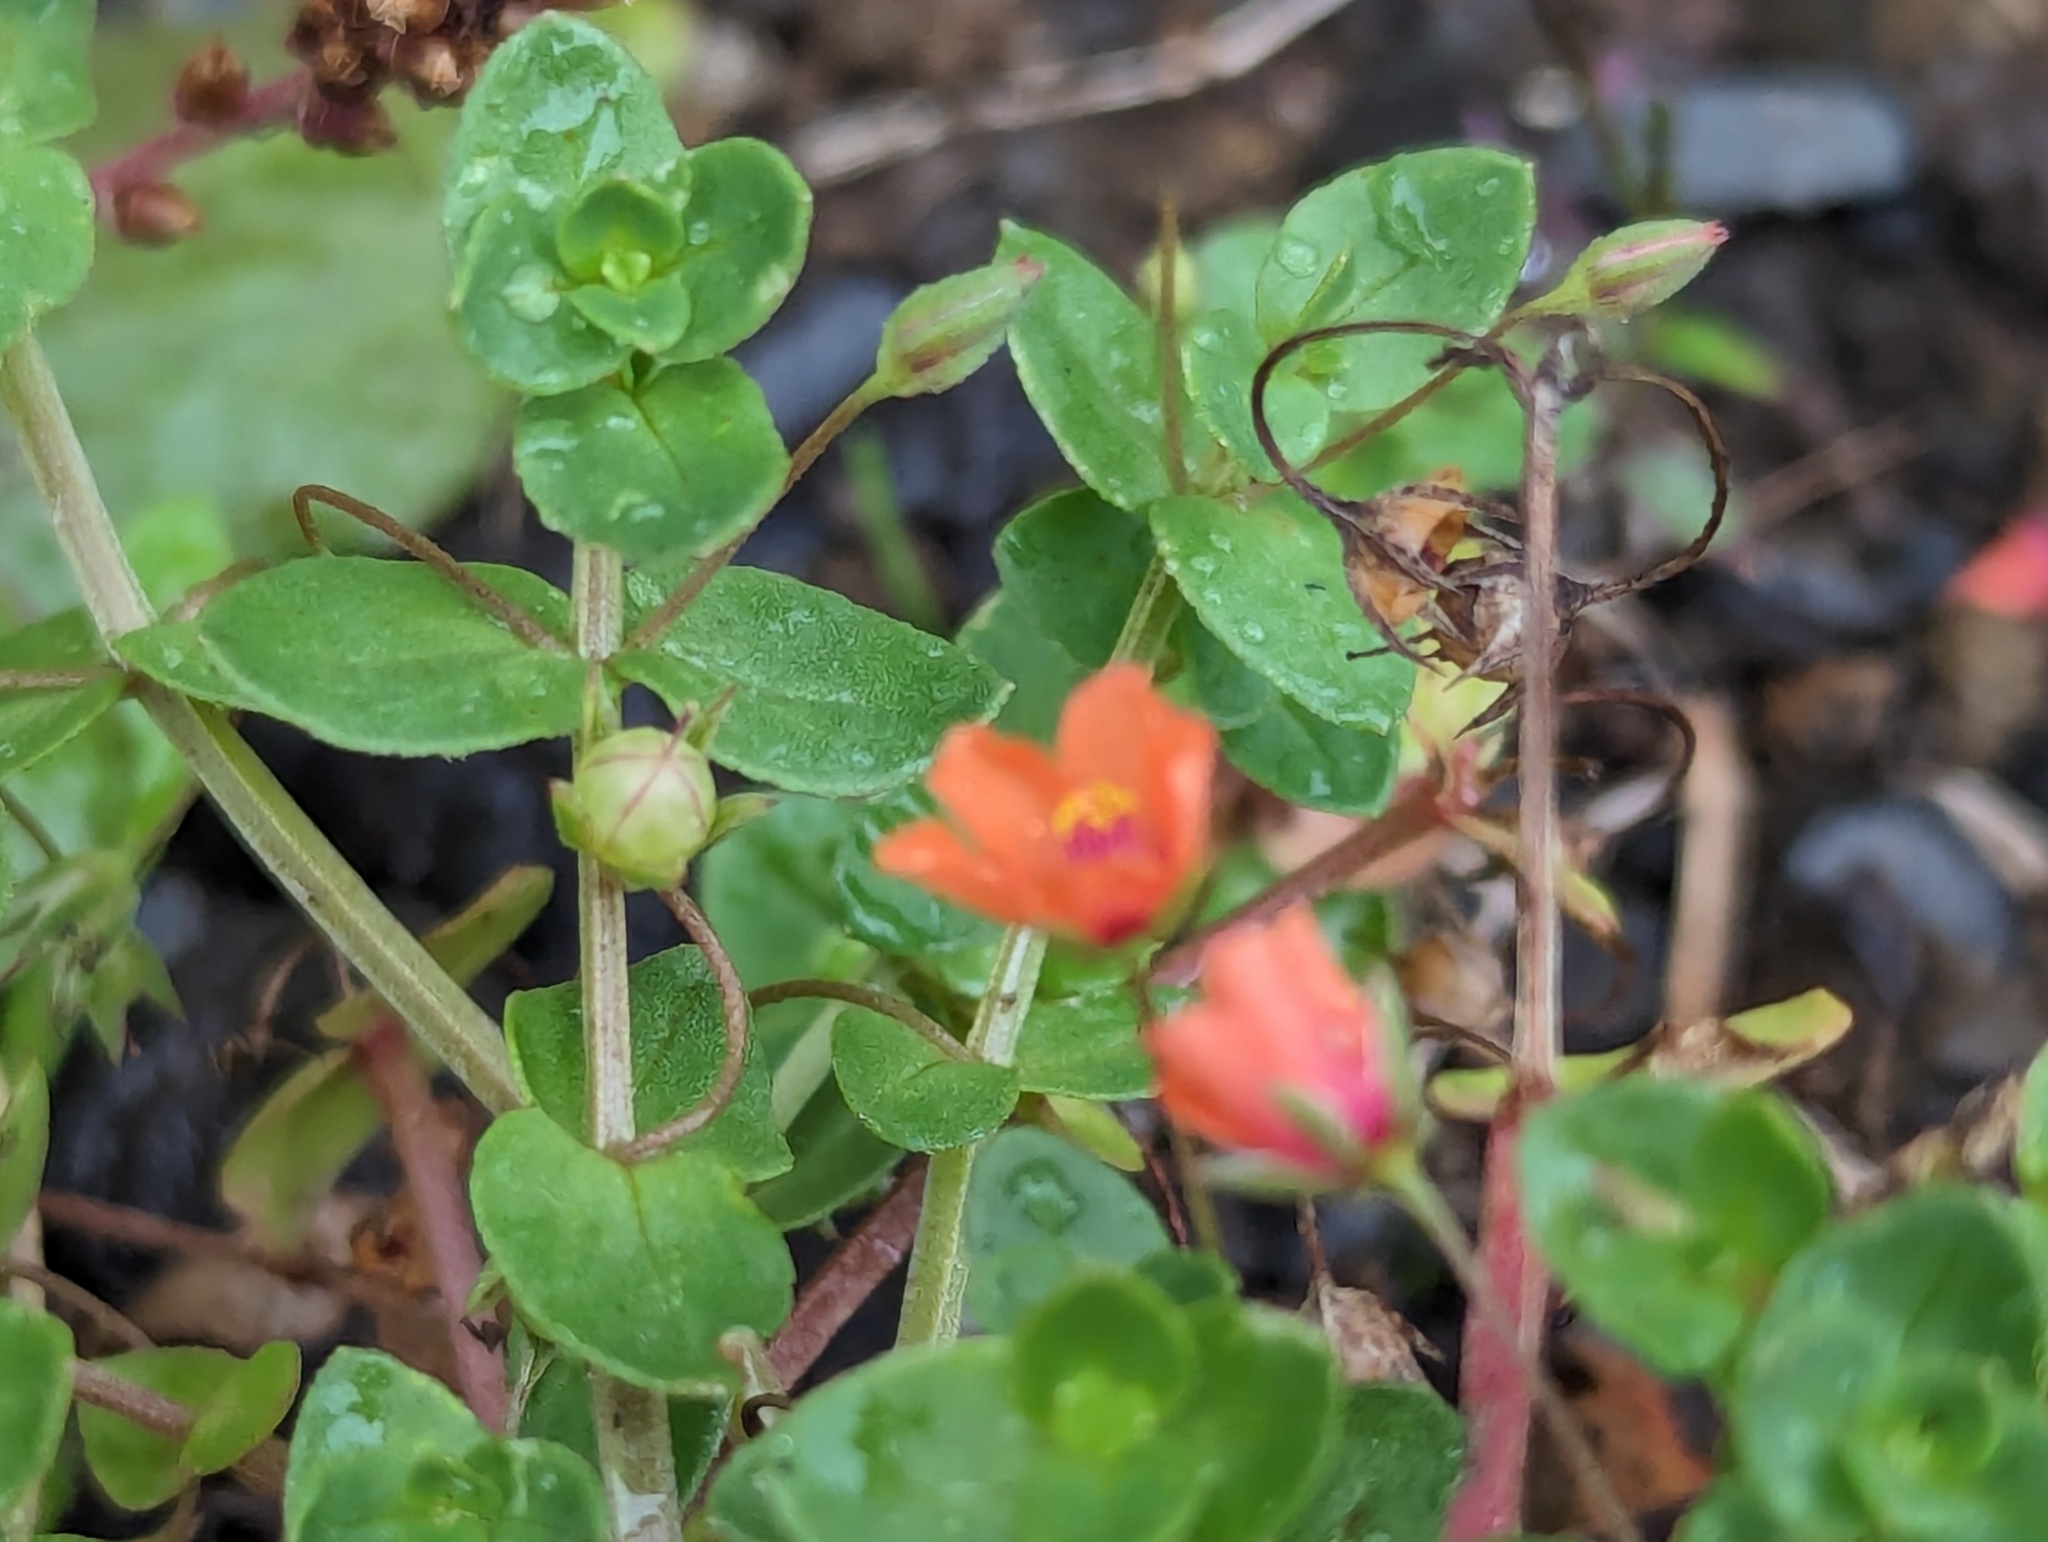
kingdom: Plantae
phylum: Tracheophyta
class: Magnoliopsida
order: Ericales
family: Primulaceae
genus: Lysimachia
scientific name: Lysimachia arvensis
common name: Scarlet pimpernel
